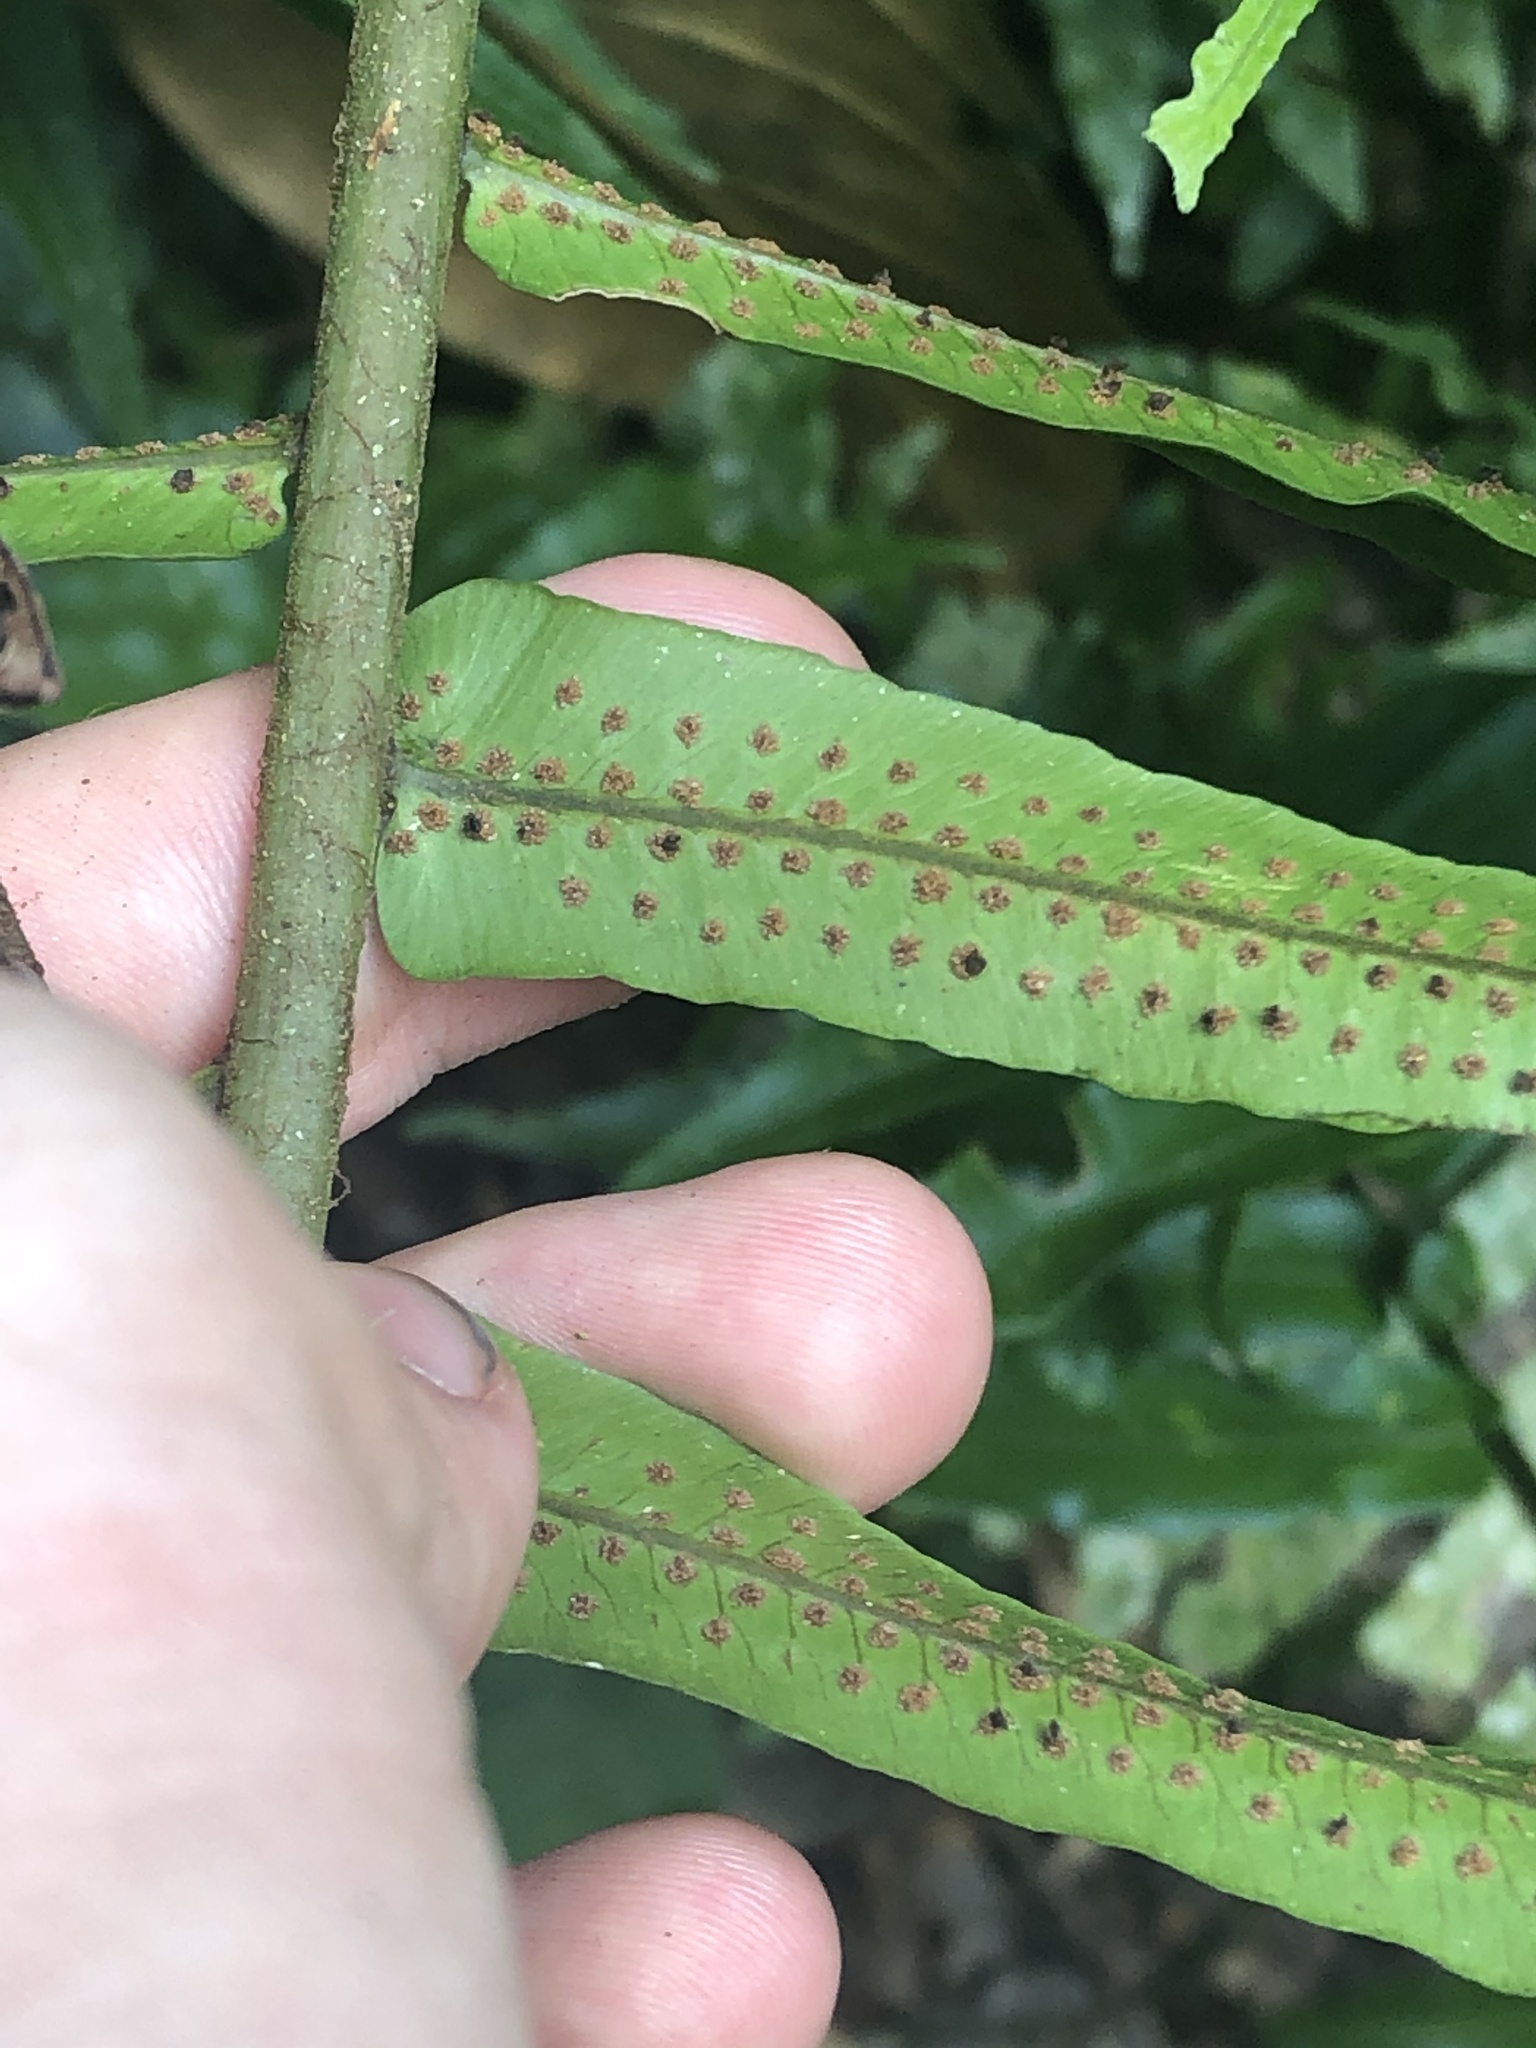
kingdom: Plantae
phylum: Tracheophyta
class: Polypodiopsida
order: Polypodiales
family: Lomariopsidaceae
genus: Cyclopeltis
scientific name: Cyclopeltis semicordata
